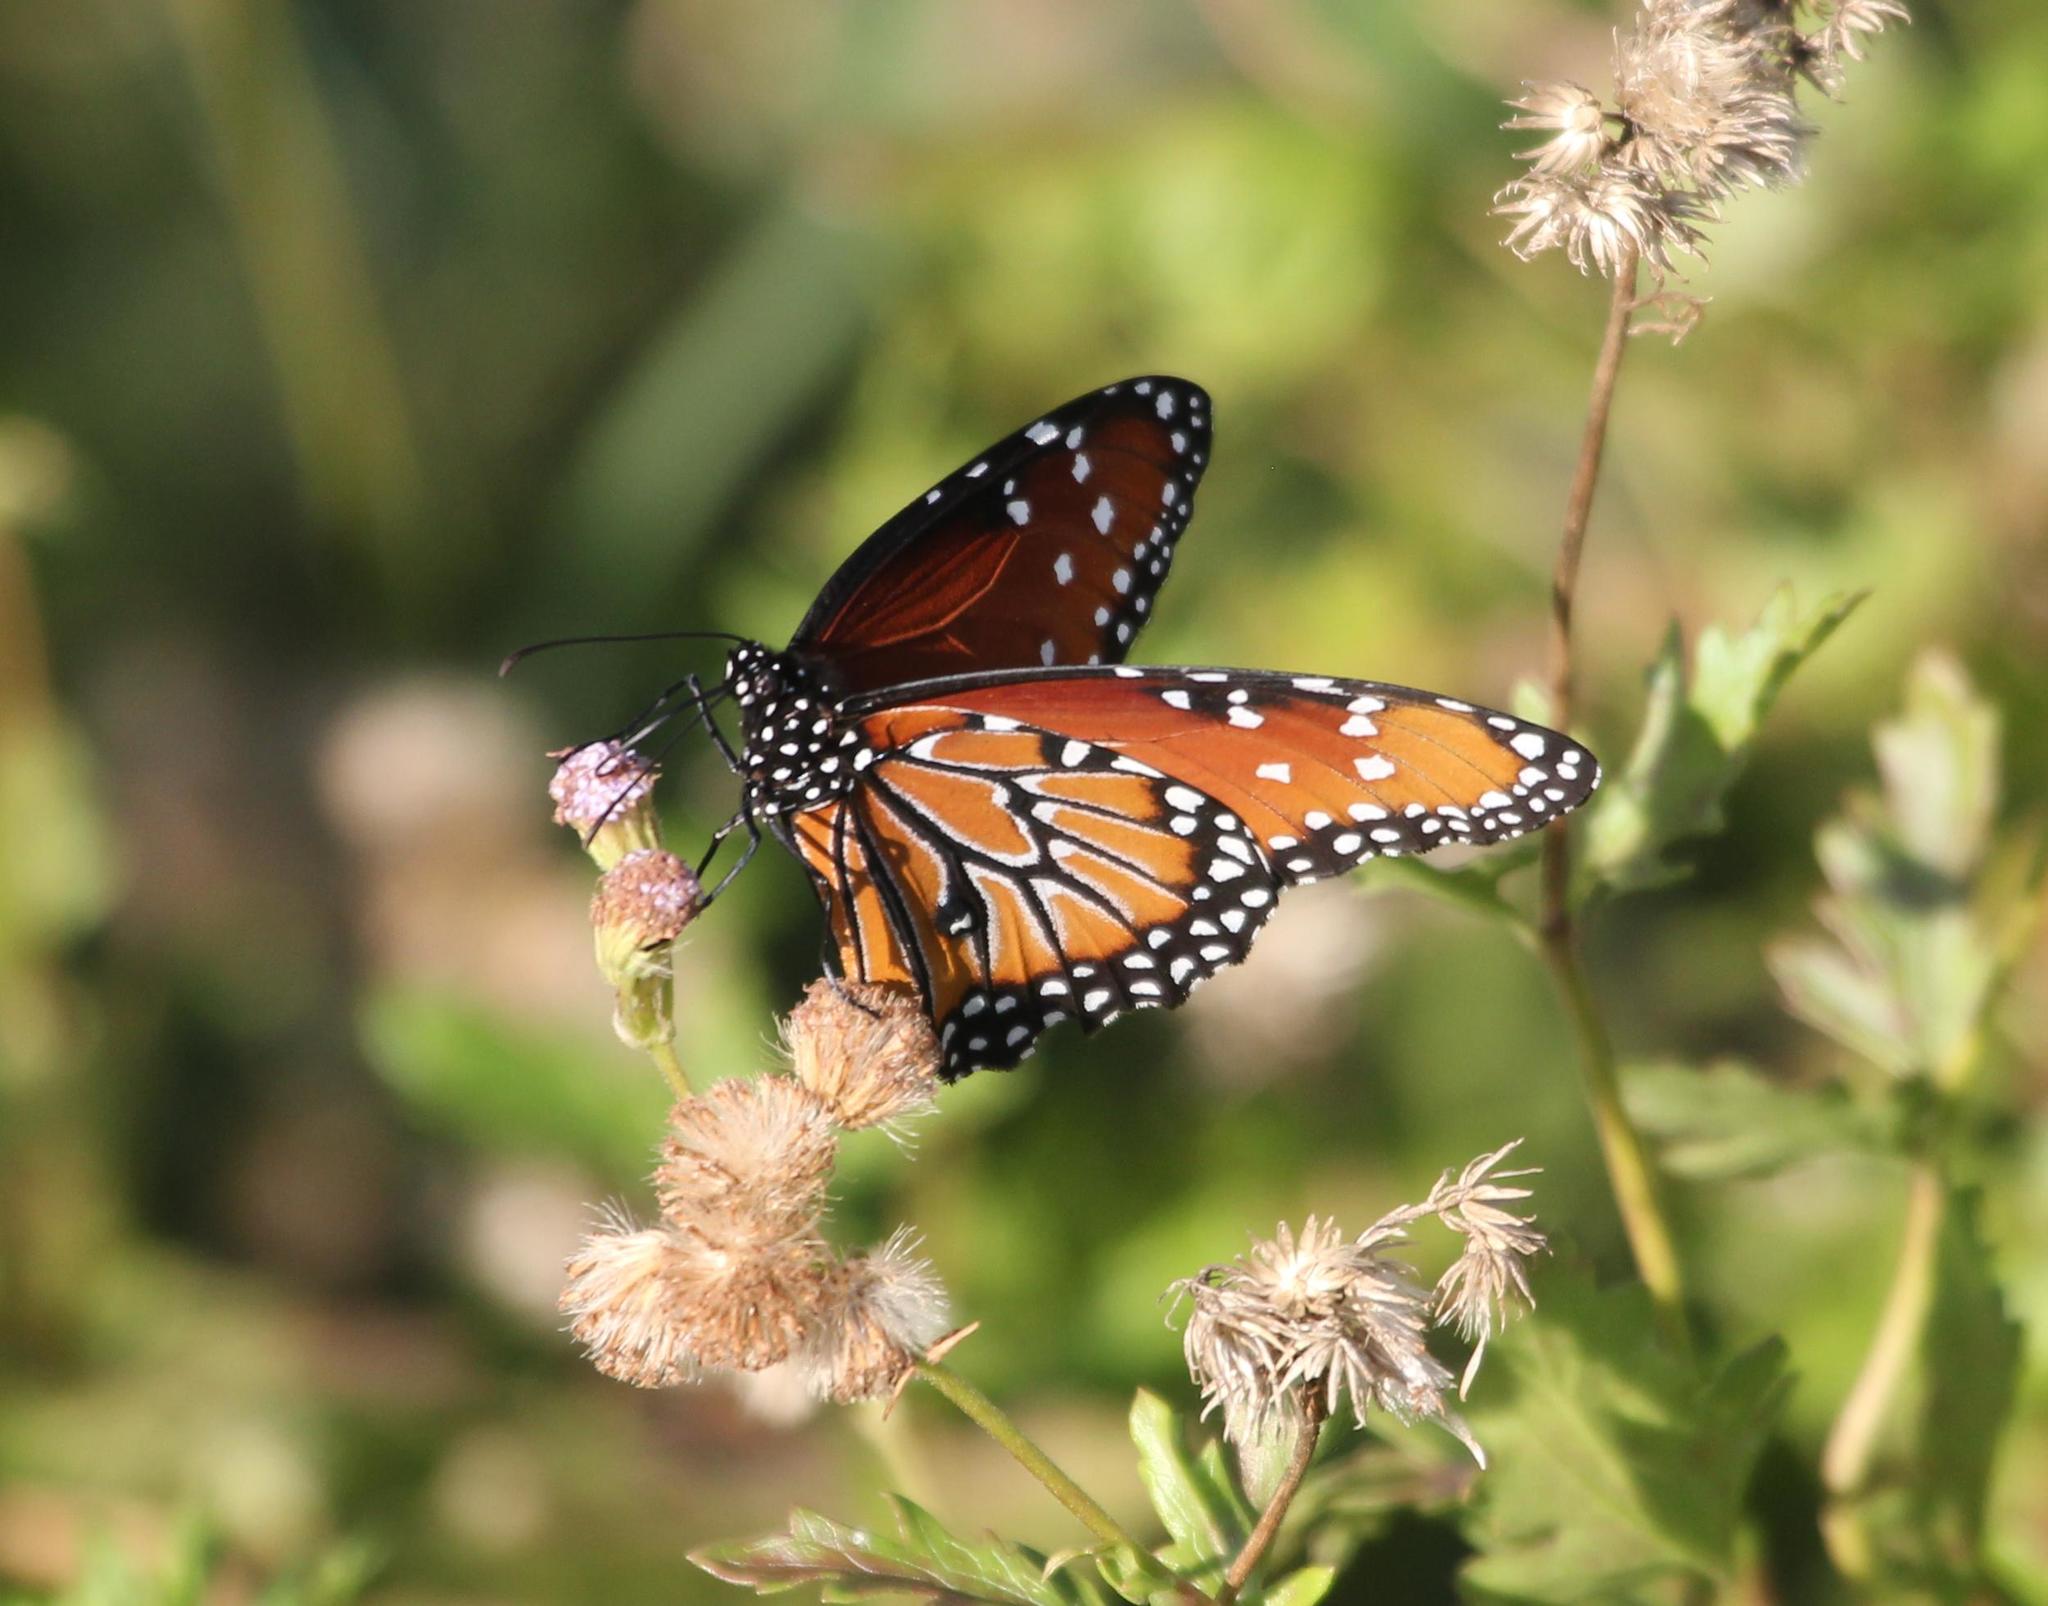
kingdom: Animalia
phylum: Arthropoda
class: Insecta
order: Lepidoptera
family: Nymphalidae
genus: Danaus
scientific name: Danaus gilippus
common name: Queen
